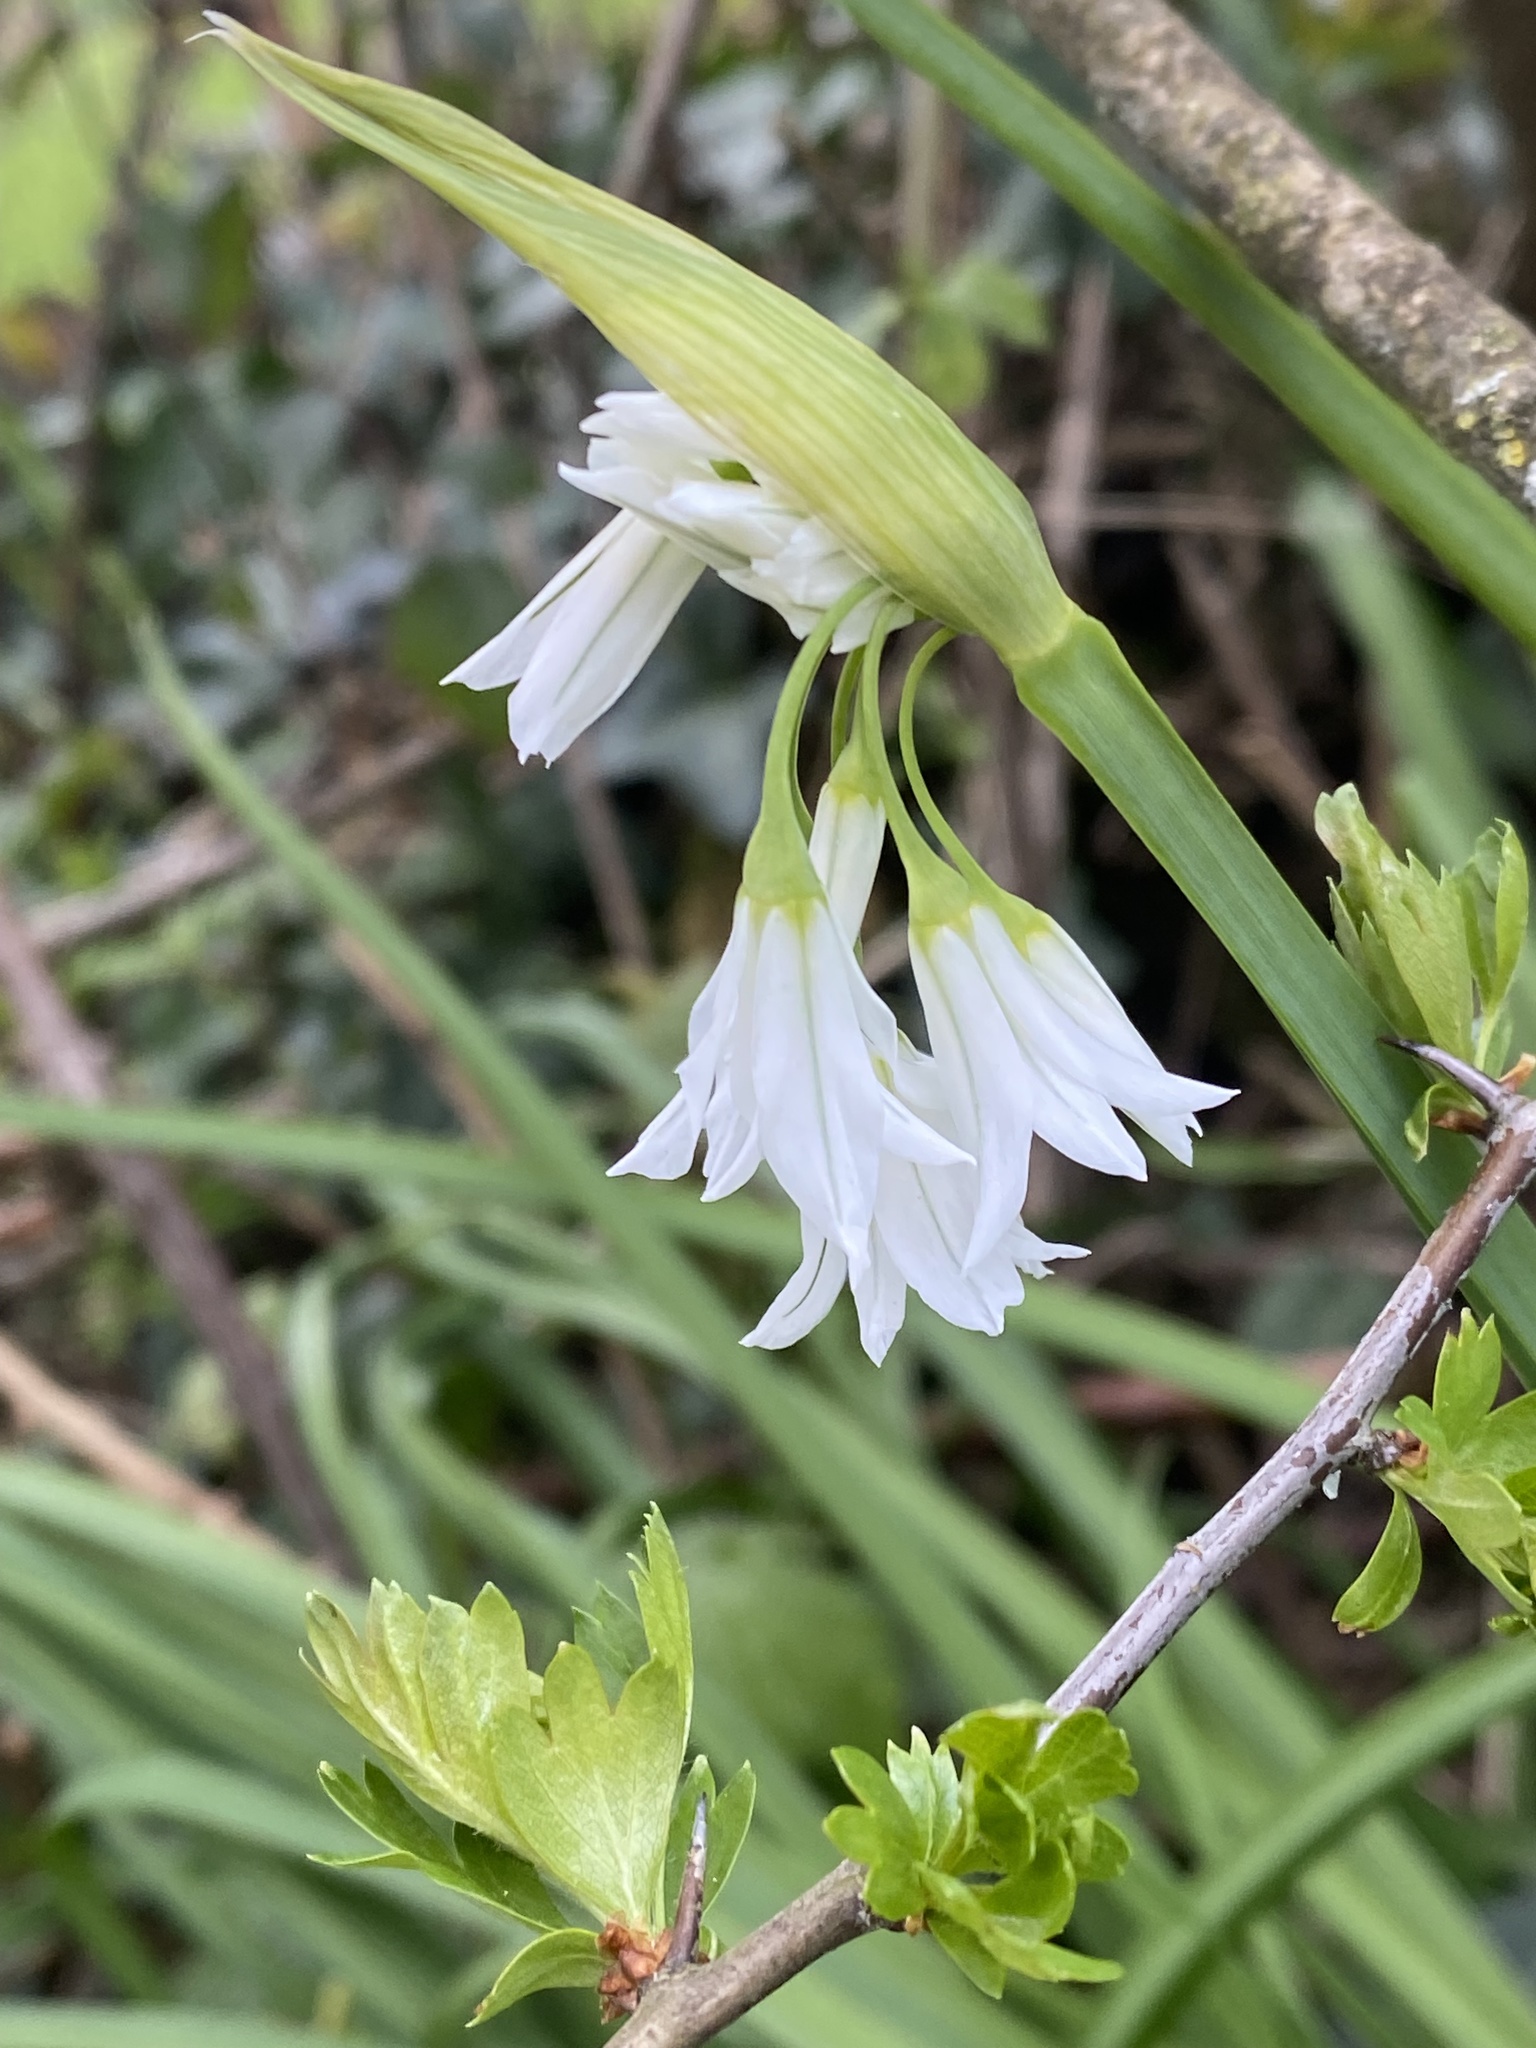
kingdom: Plantae
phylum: Tracheophyta
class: Liliopsida
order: Asparagales
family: Amaryllidaceae
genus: Allium
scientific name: Allium triquetrum
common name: Three-cornered garlic
